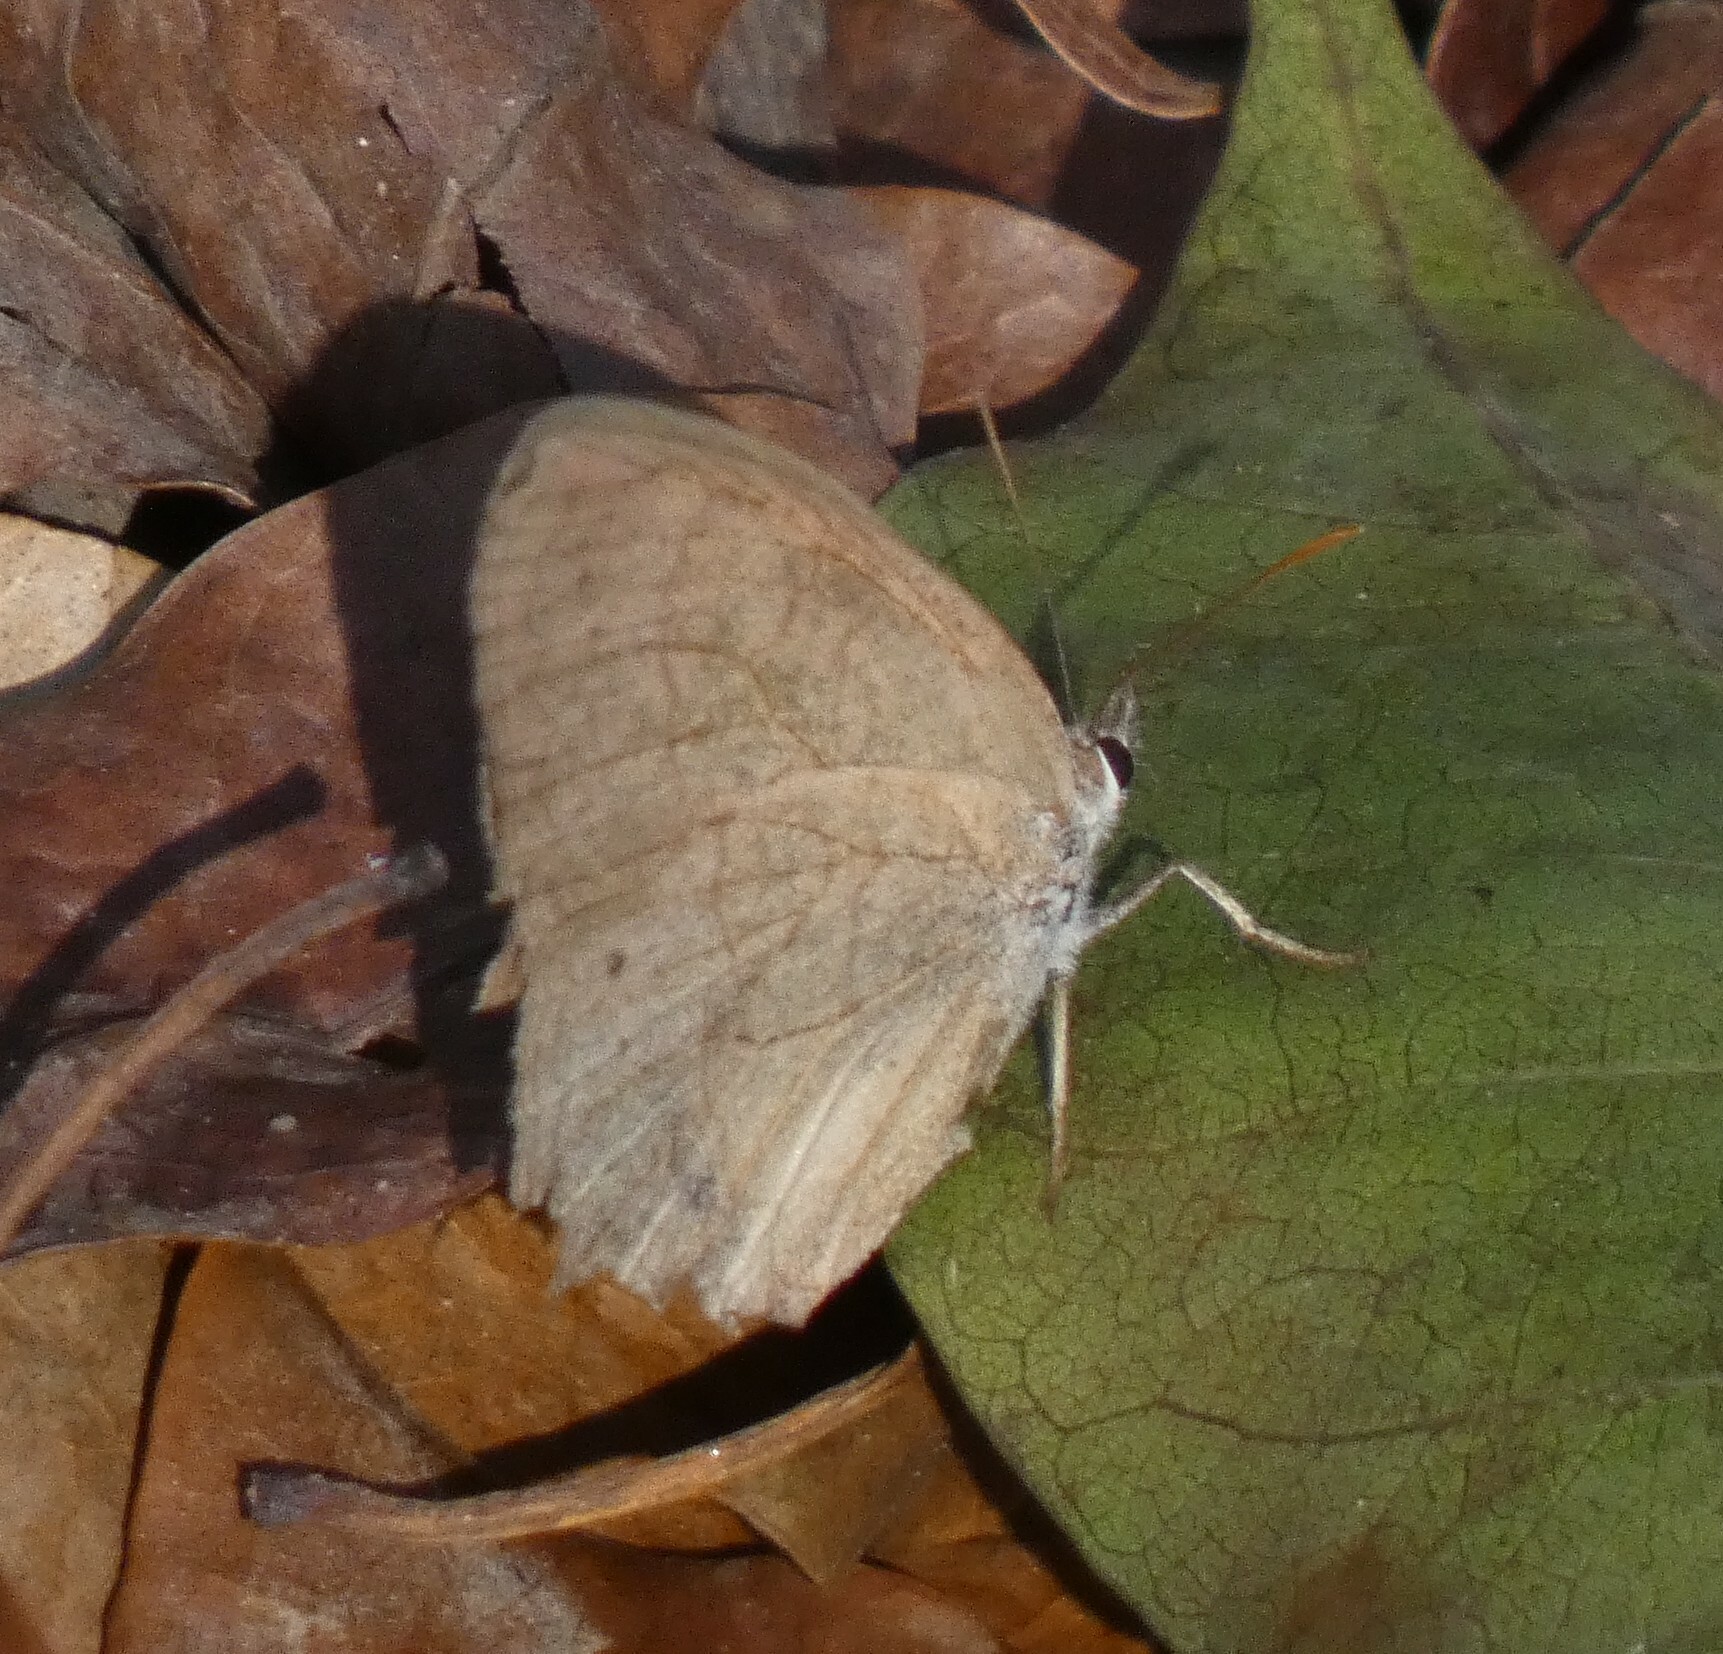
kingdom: Animalia
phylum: Arthropoda
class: Insecta
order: Lepidoptera
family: Nymphalidae
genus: Euptychia
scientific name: Euptychia Cissia eous
